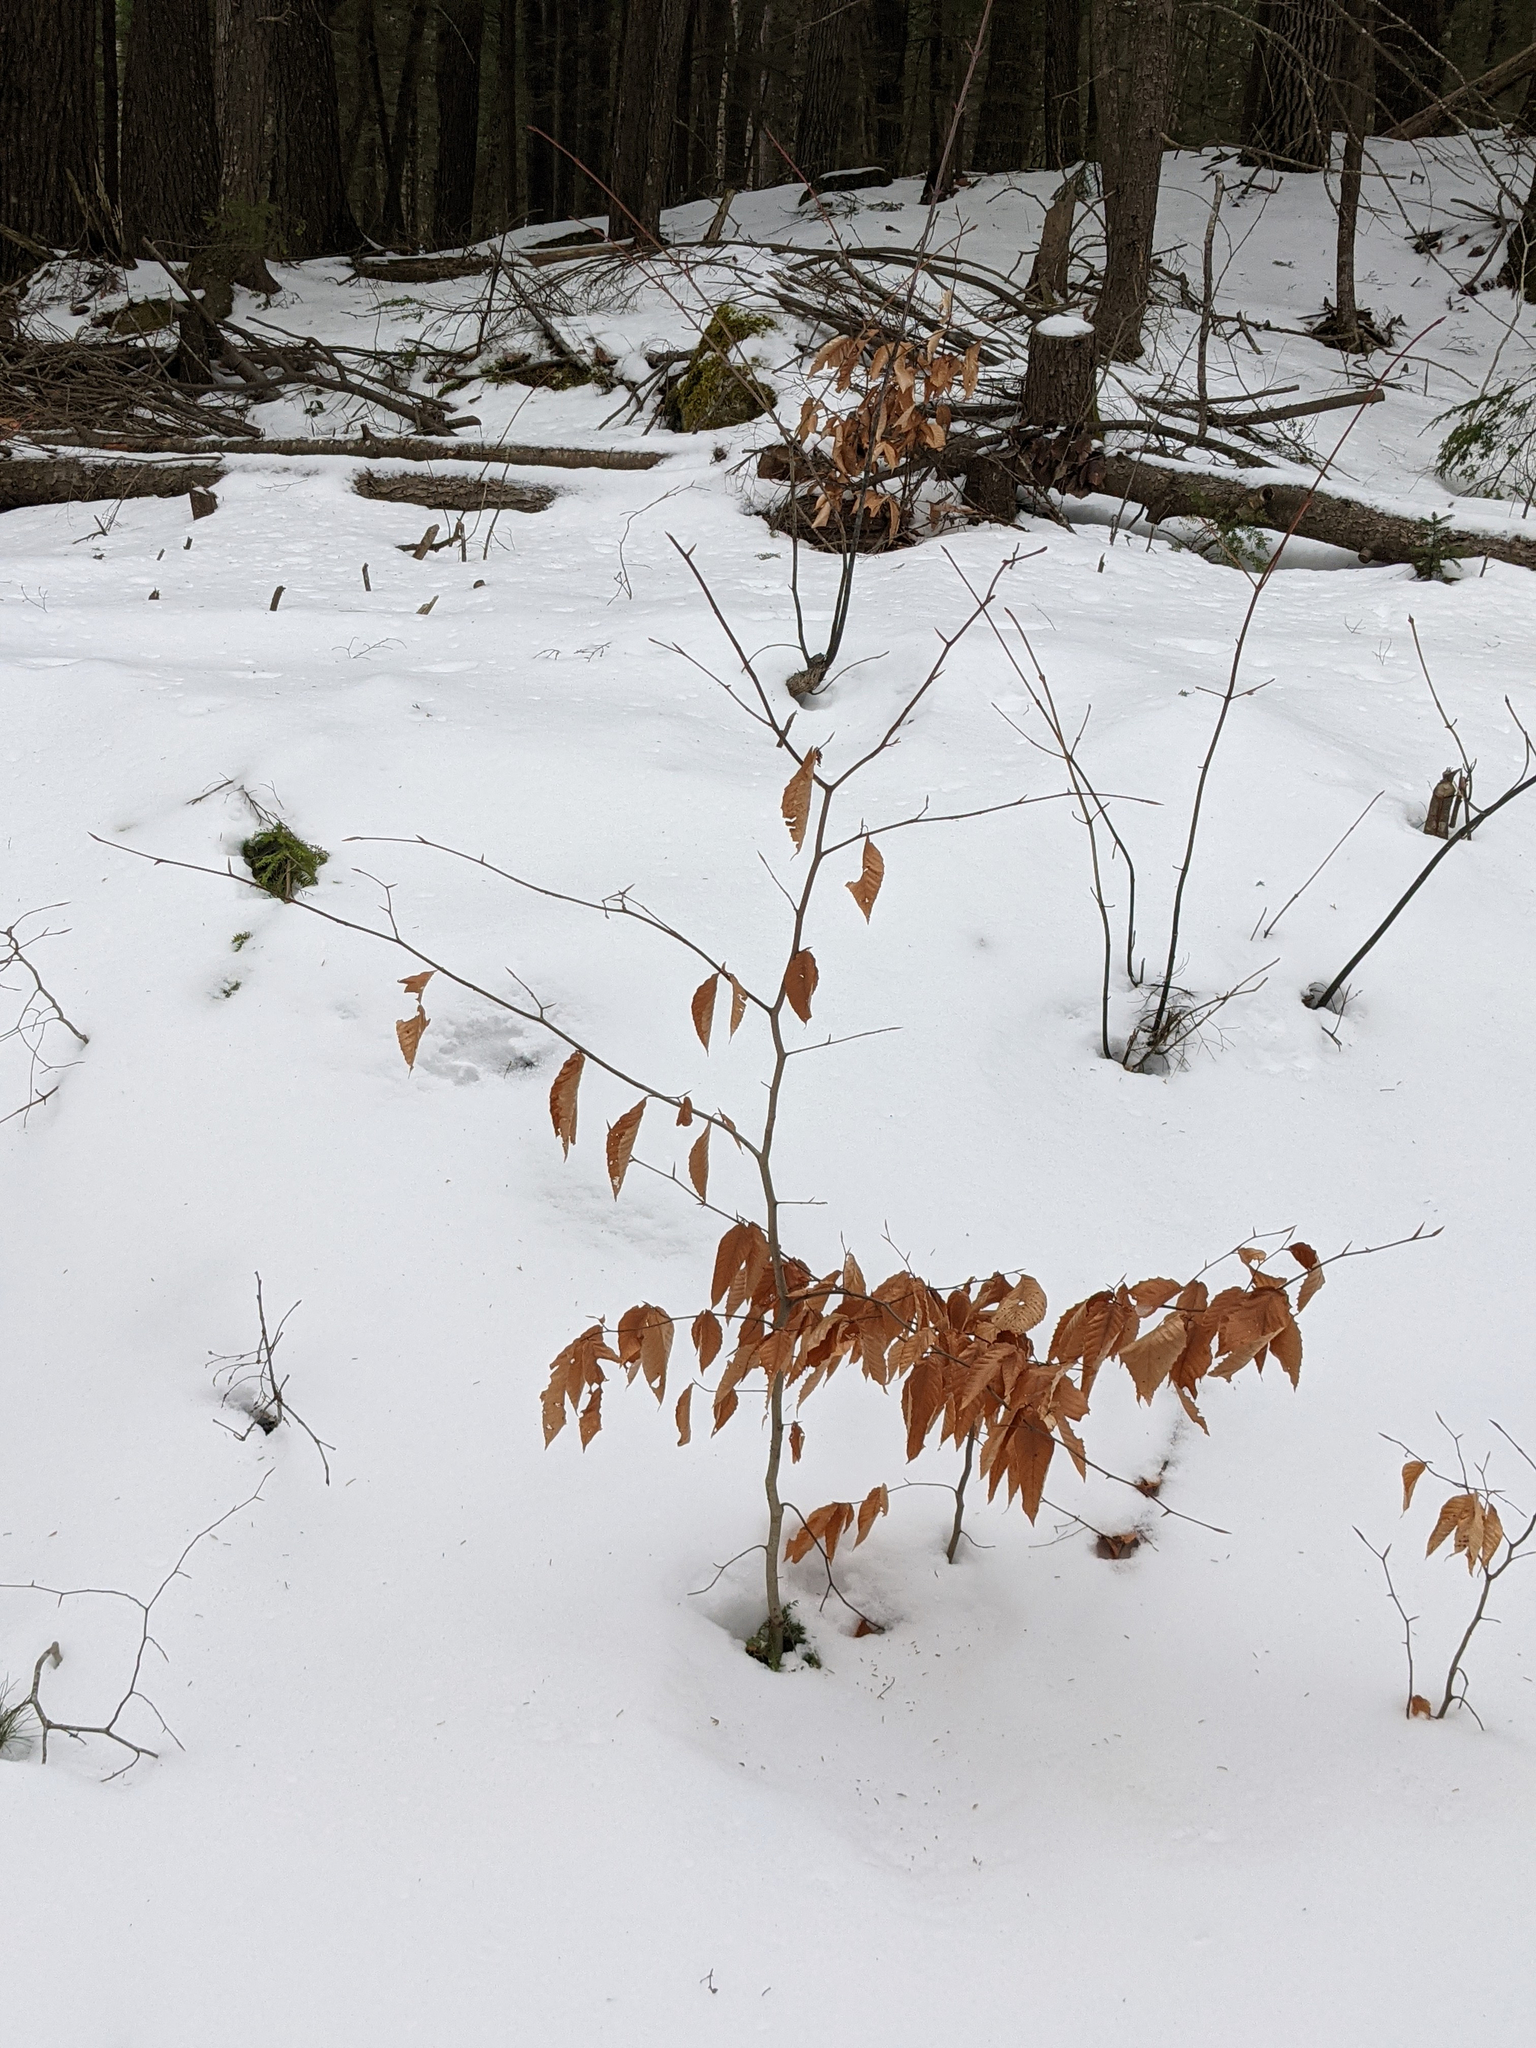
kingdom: Plantae
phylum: Tracheophyta
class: Magnoliopsida
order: Fagales
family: Fagaceae
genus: Fagus
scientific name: Fagus grandifolia
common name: American beech
